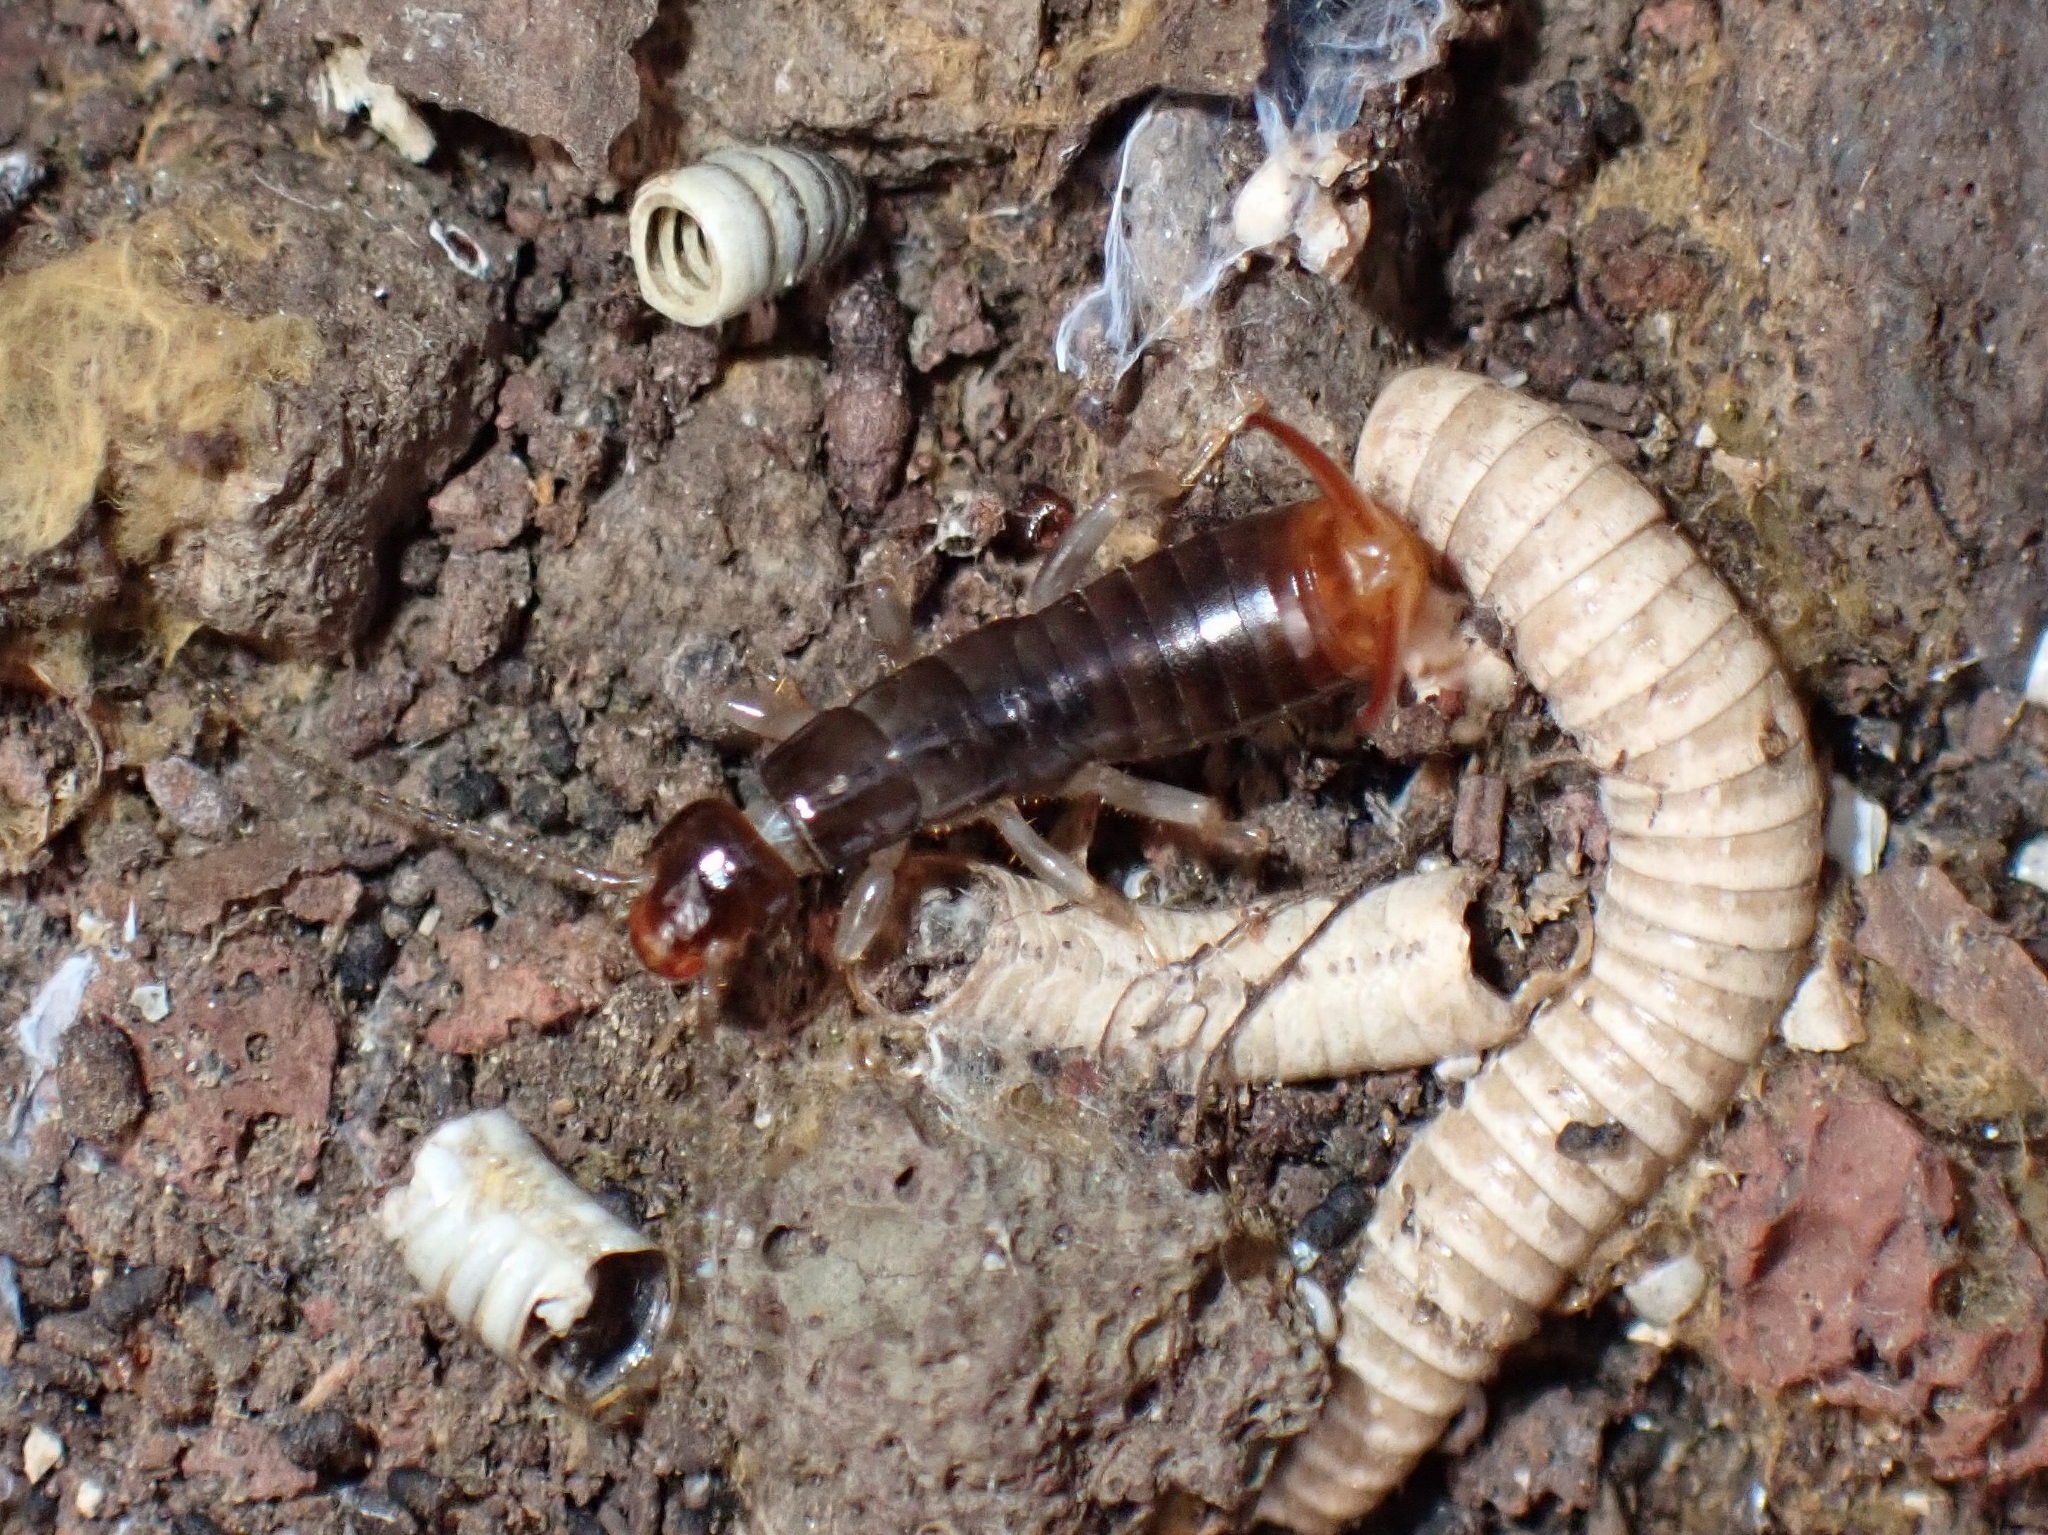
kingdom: Animalia
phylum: Arthropoda
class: Insecta
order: Dermaptera
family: Anisolabididae
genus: Canarilabis
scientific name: Canarilabis maxima
